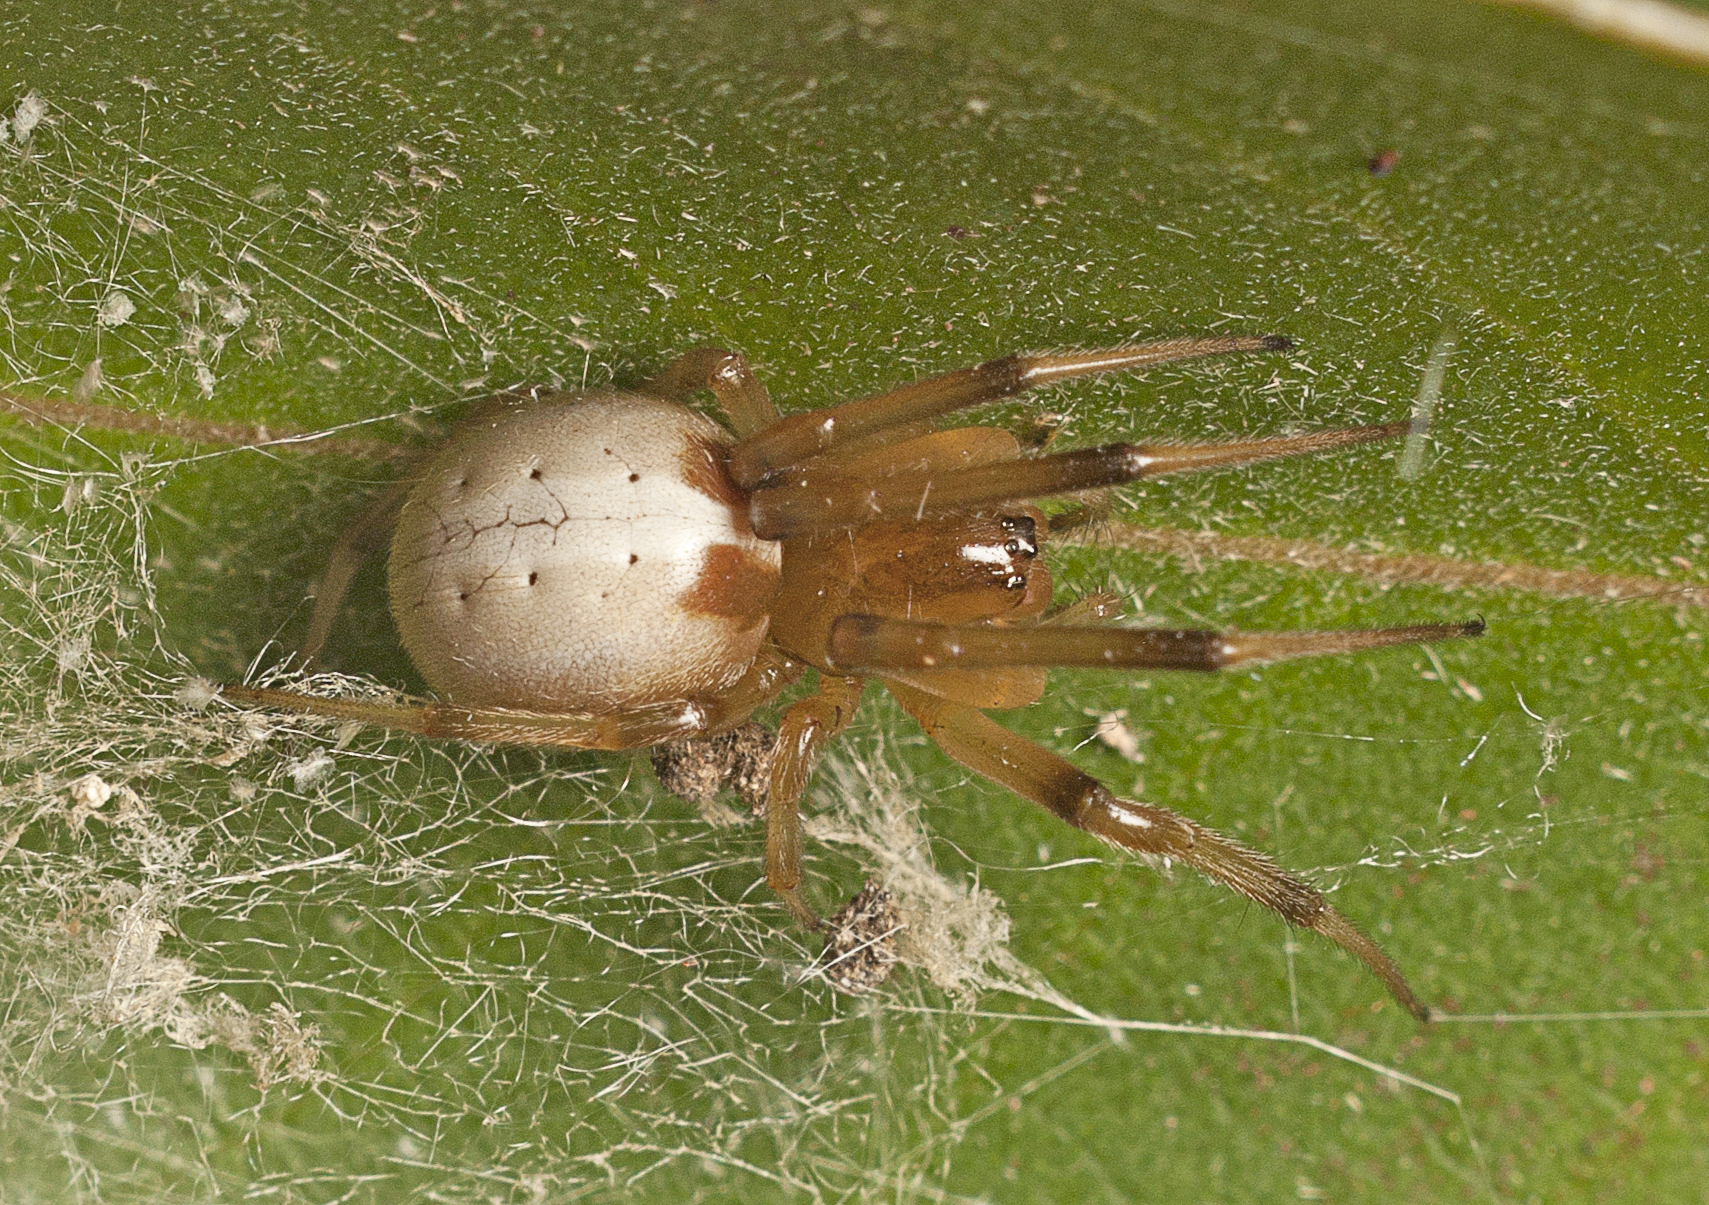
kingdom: Animalia
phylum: Arthropoda
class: Arachnida
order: Araneae
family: Araneidae
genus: Deliochus
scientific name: Deliochus idoneus
